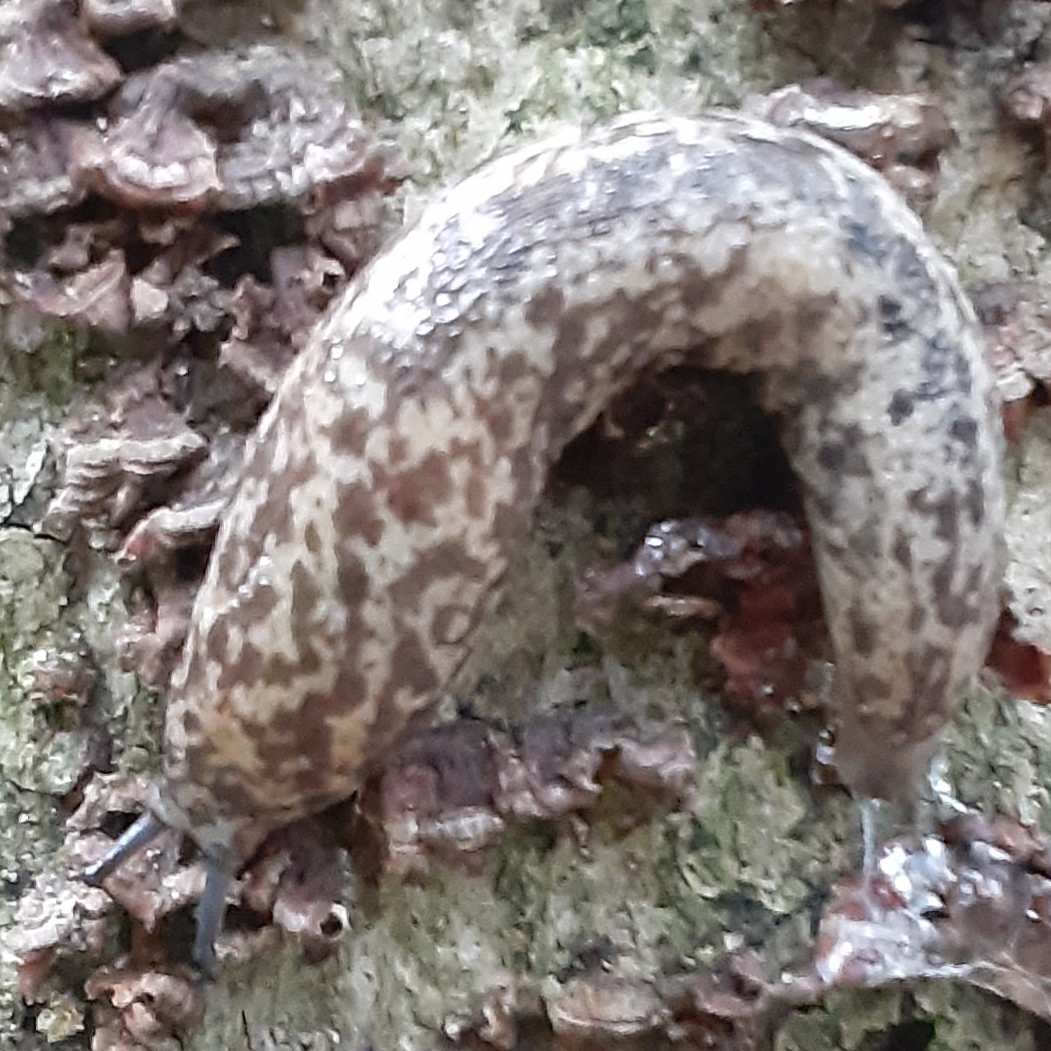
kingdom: Animalia
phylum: Mollusca
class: Gastropoda
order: Stylommatophora
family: Philomycidae
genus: Philomycus
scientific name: Philomycus flexuolaris
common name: Winding mantleslug
